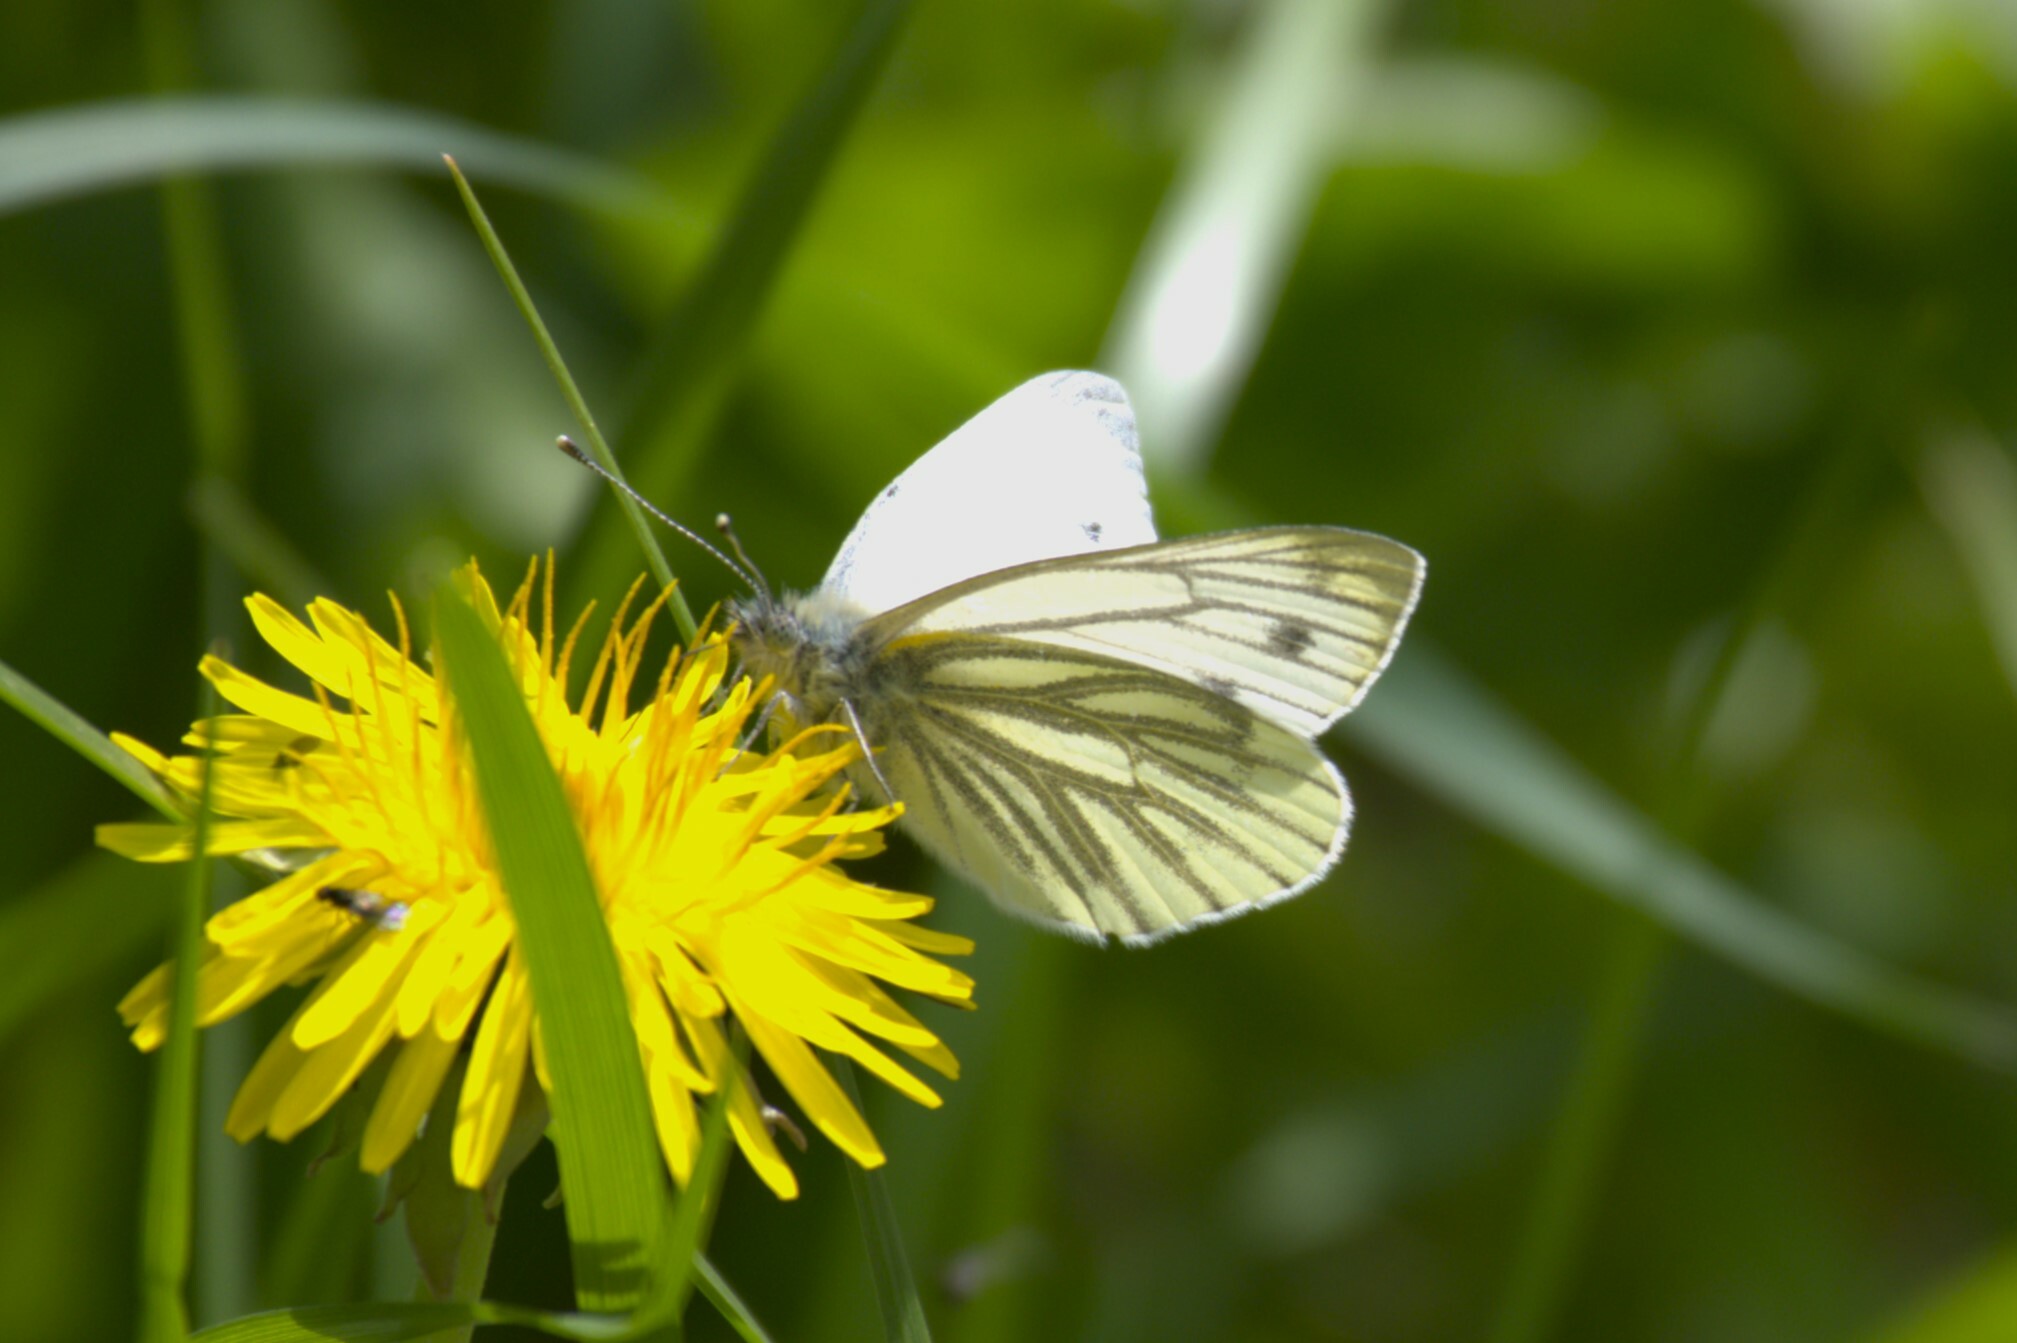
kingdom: Animalia
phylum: Arthropoda
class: Insecta
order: Lepidoptera
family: Pieridae
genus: Pieris
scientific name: Pieris napi
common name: Green-veined white
